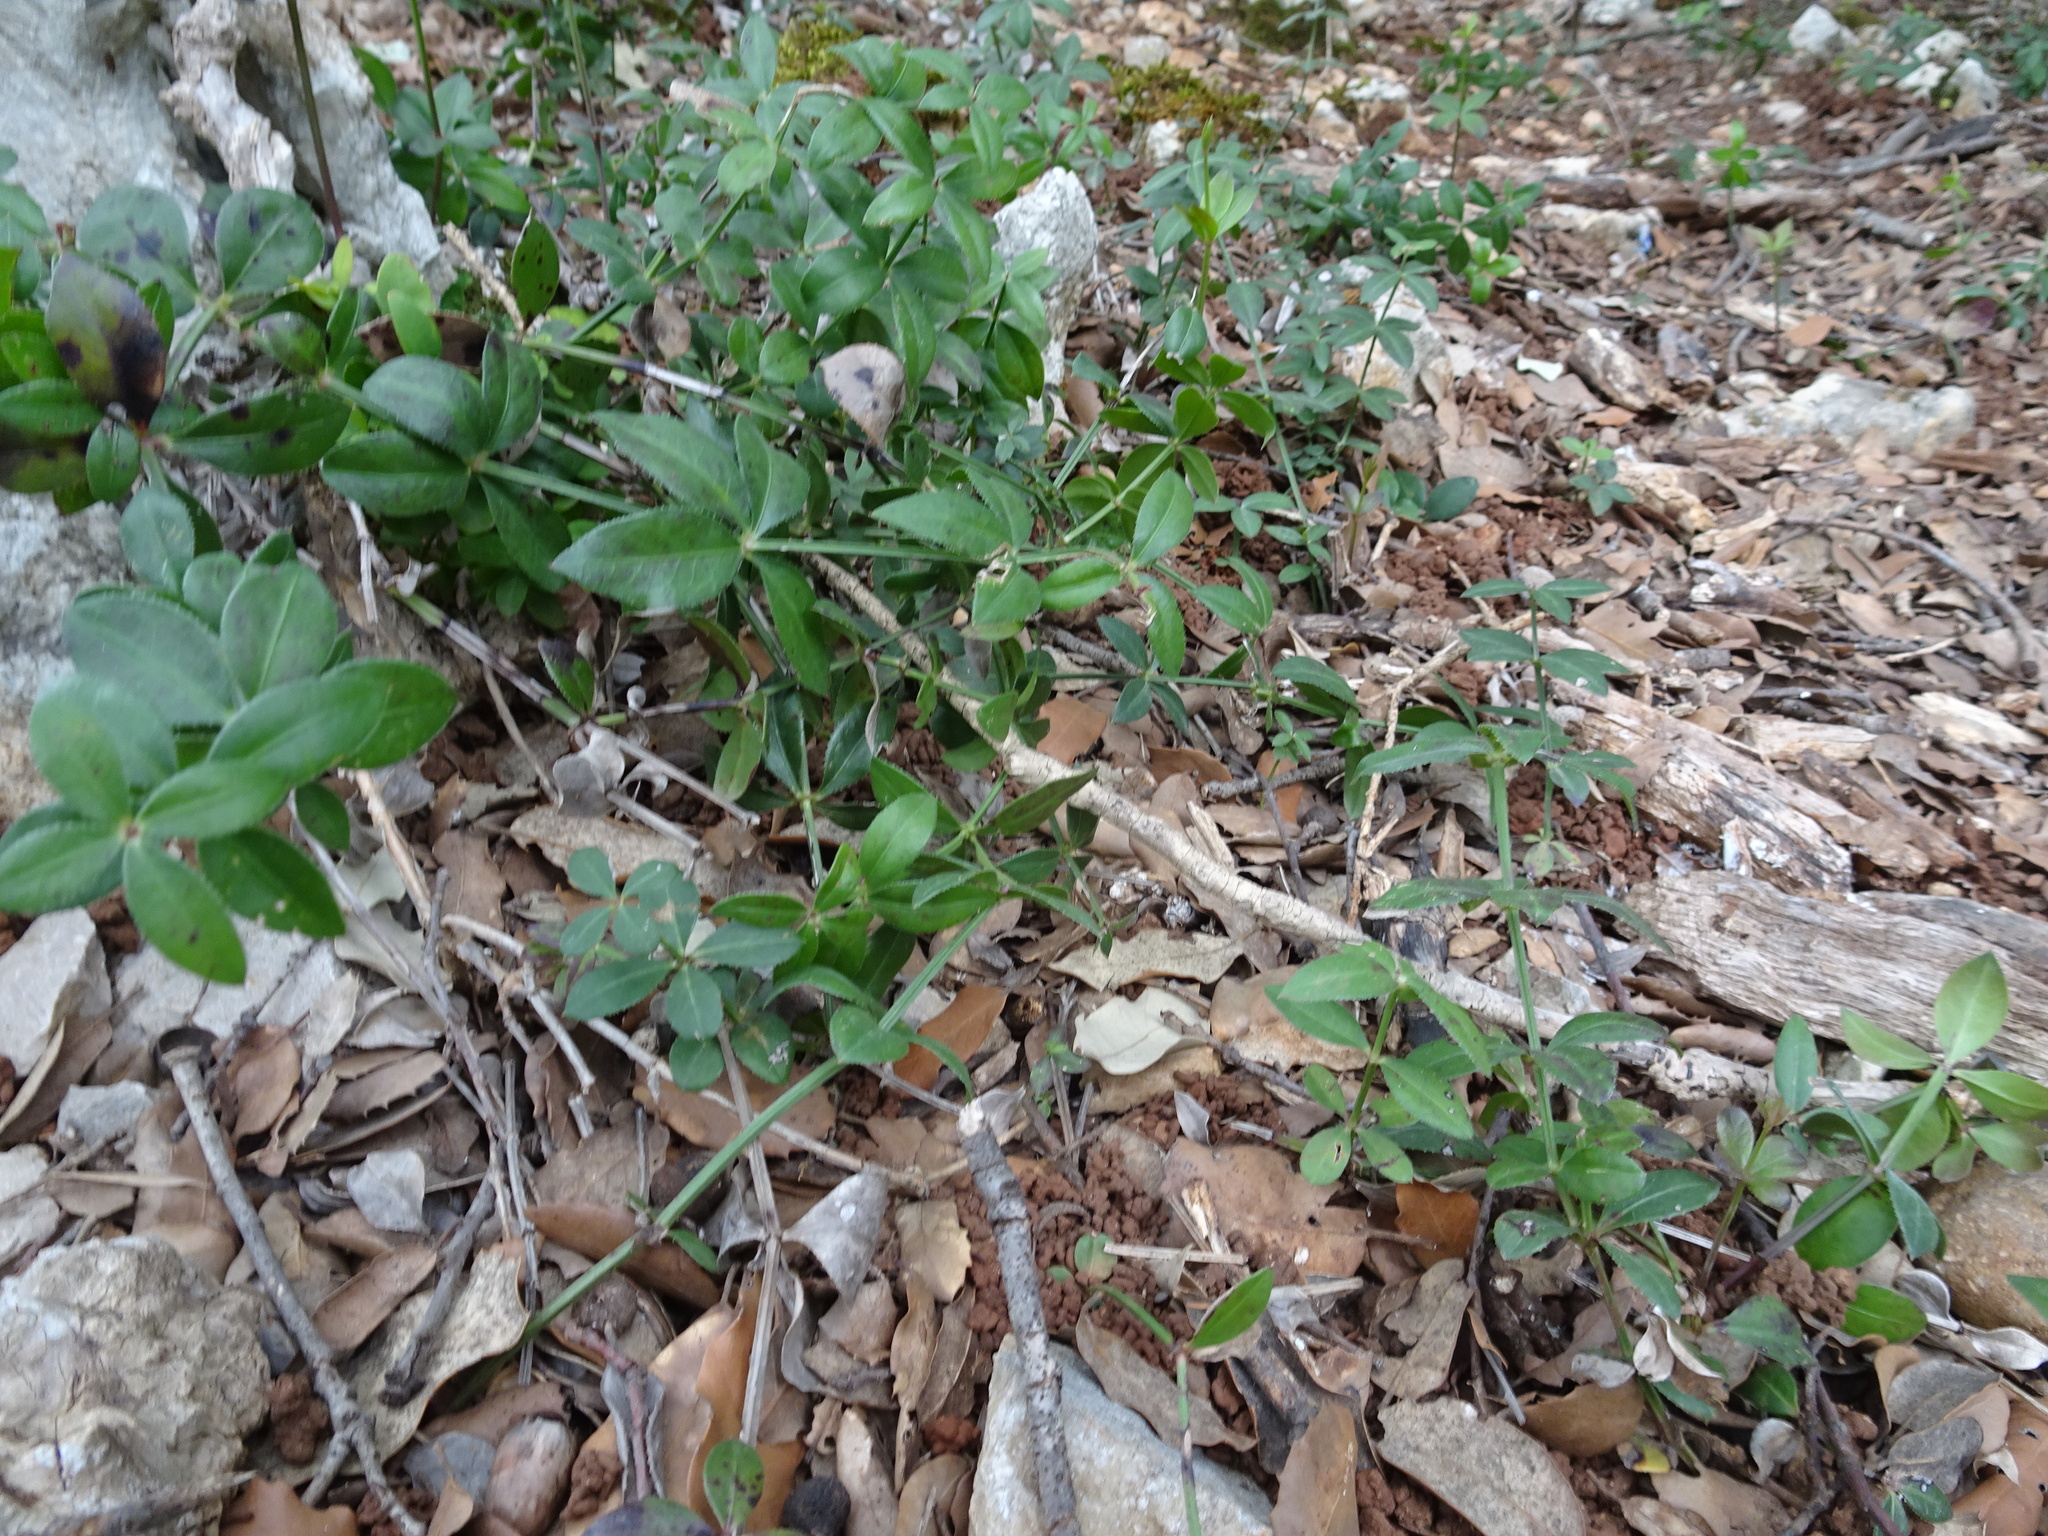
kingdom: Plantae
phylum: Tracheophyta
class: Magnoliopsida
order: Gentianales
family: Rubiaceae
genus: Rubia
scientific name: Rubia peregrina
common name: Wild madder
